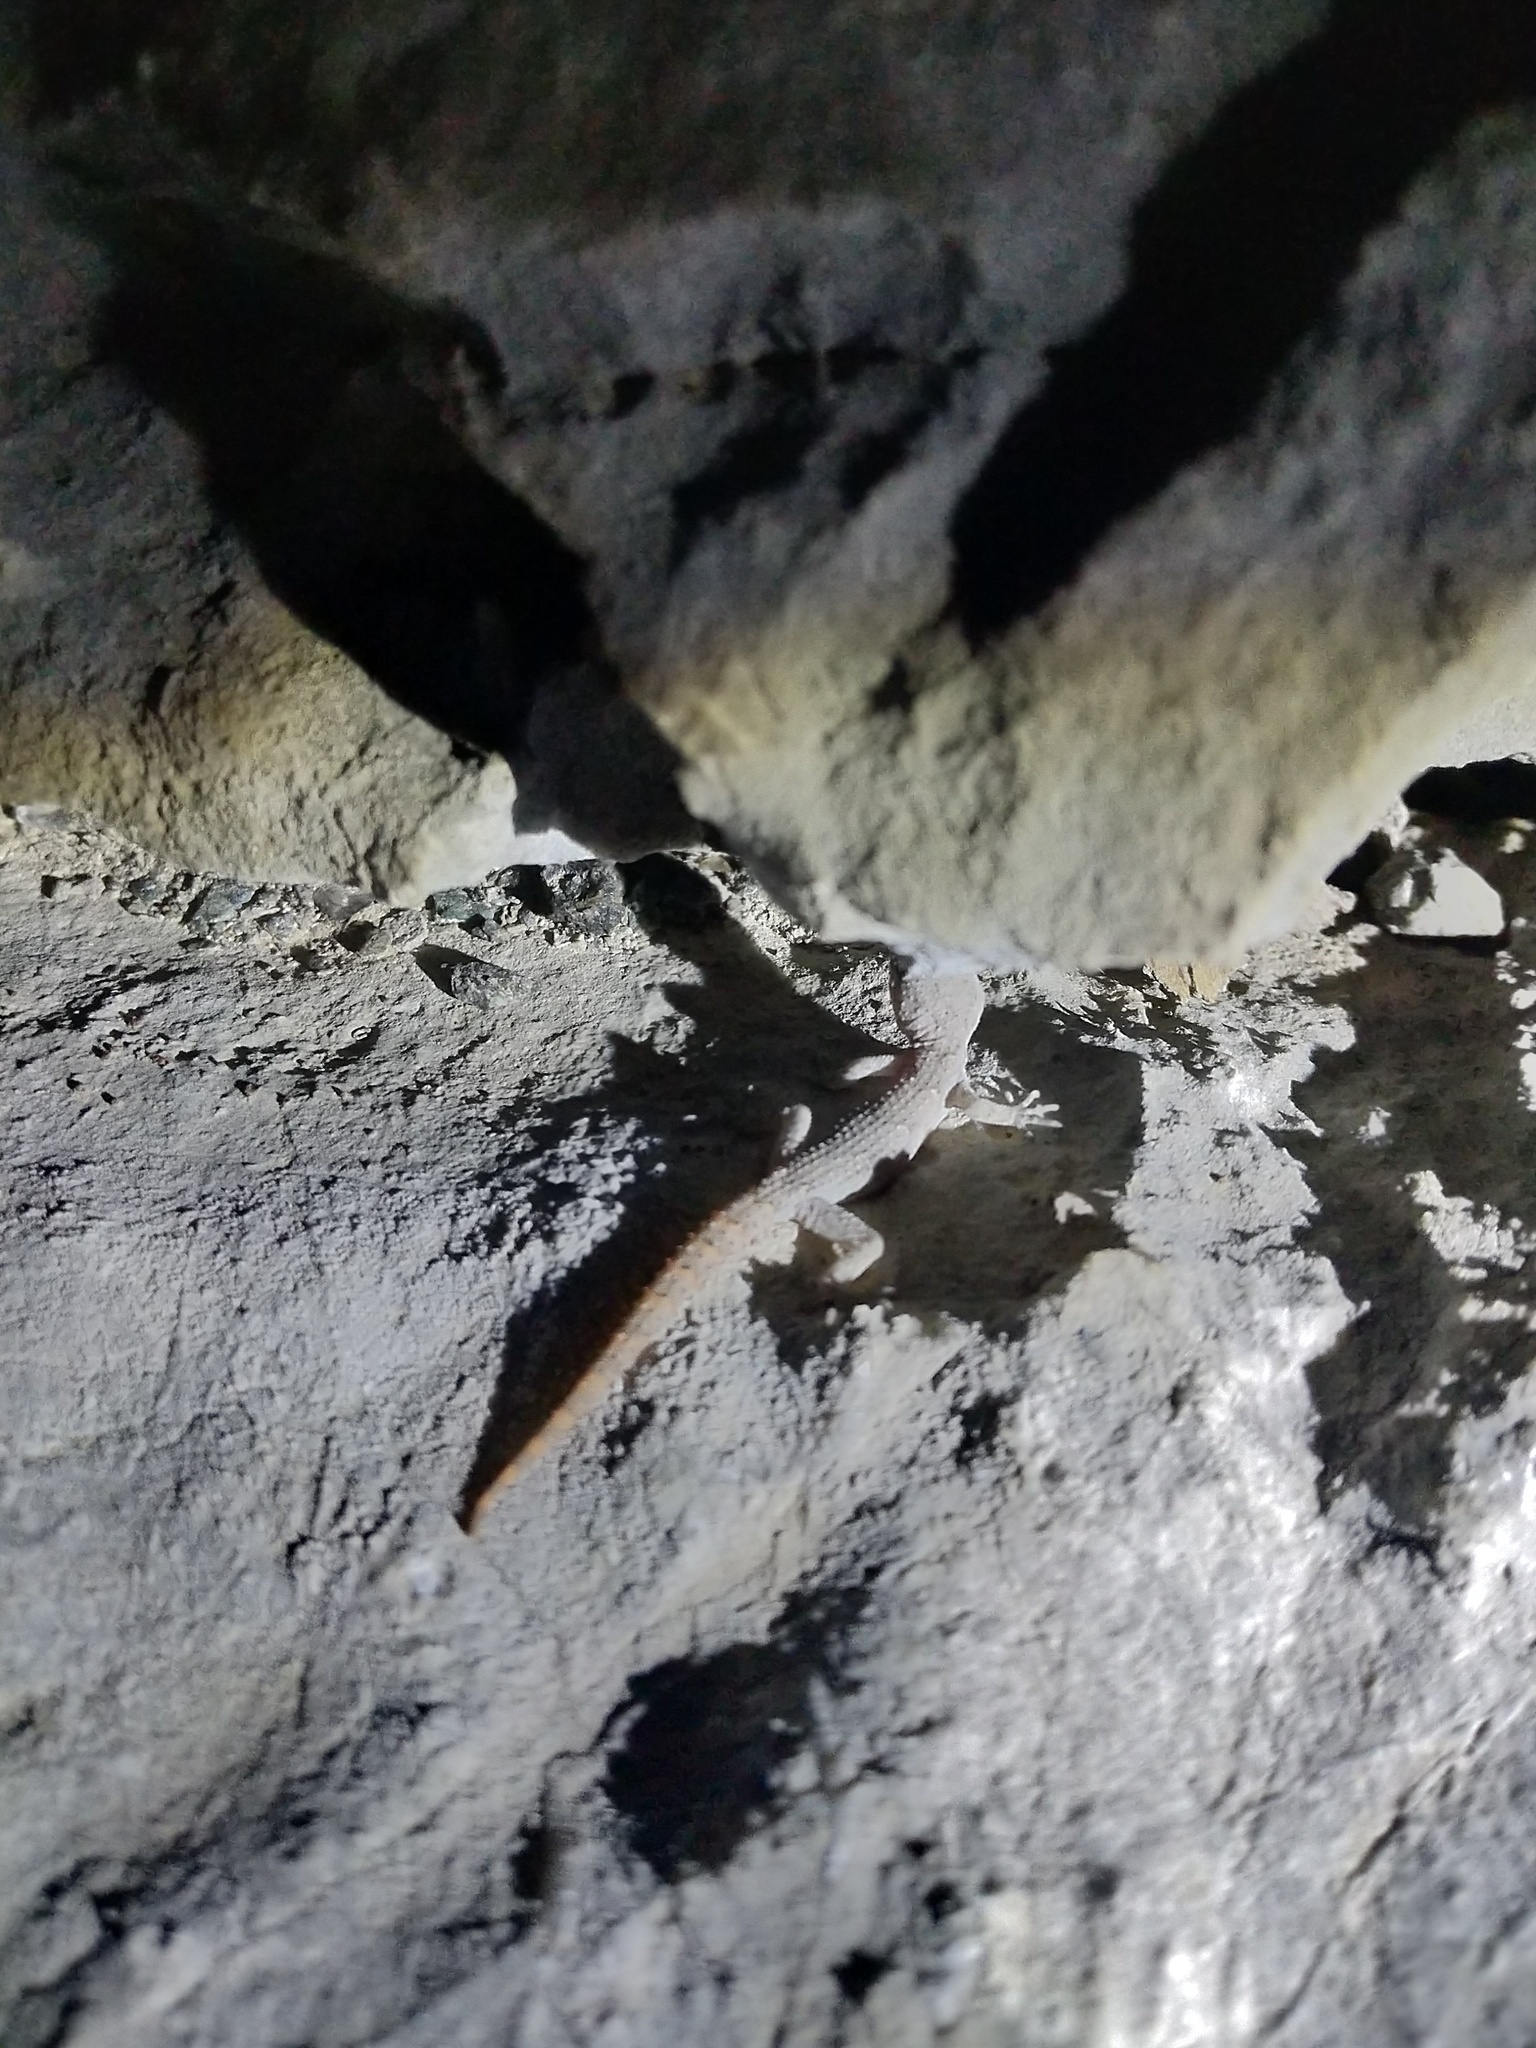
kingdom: Animalia
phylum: Chordata
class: Squamata
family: Gekkonidae
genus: Mediodactylus
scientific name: Mediodactylus danilewskii
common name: Bulgarian bent-toed gecko
